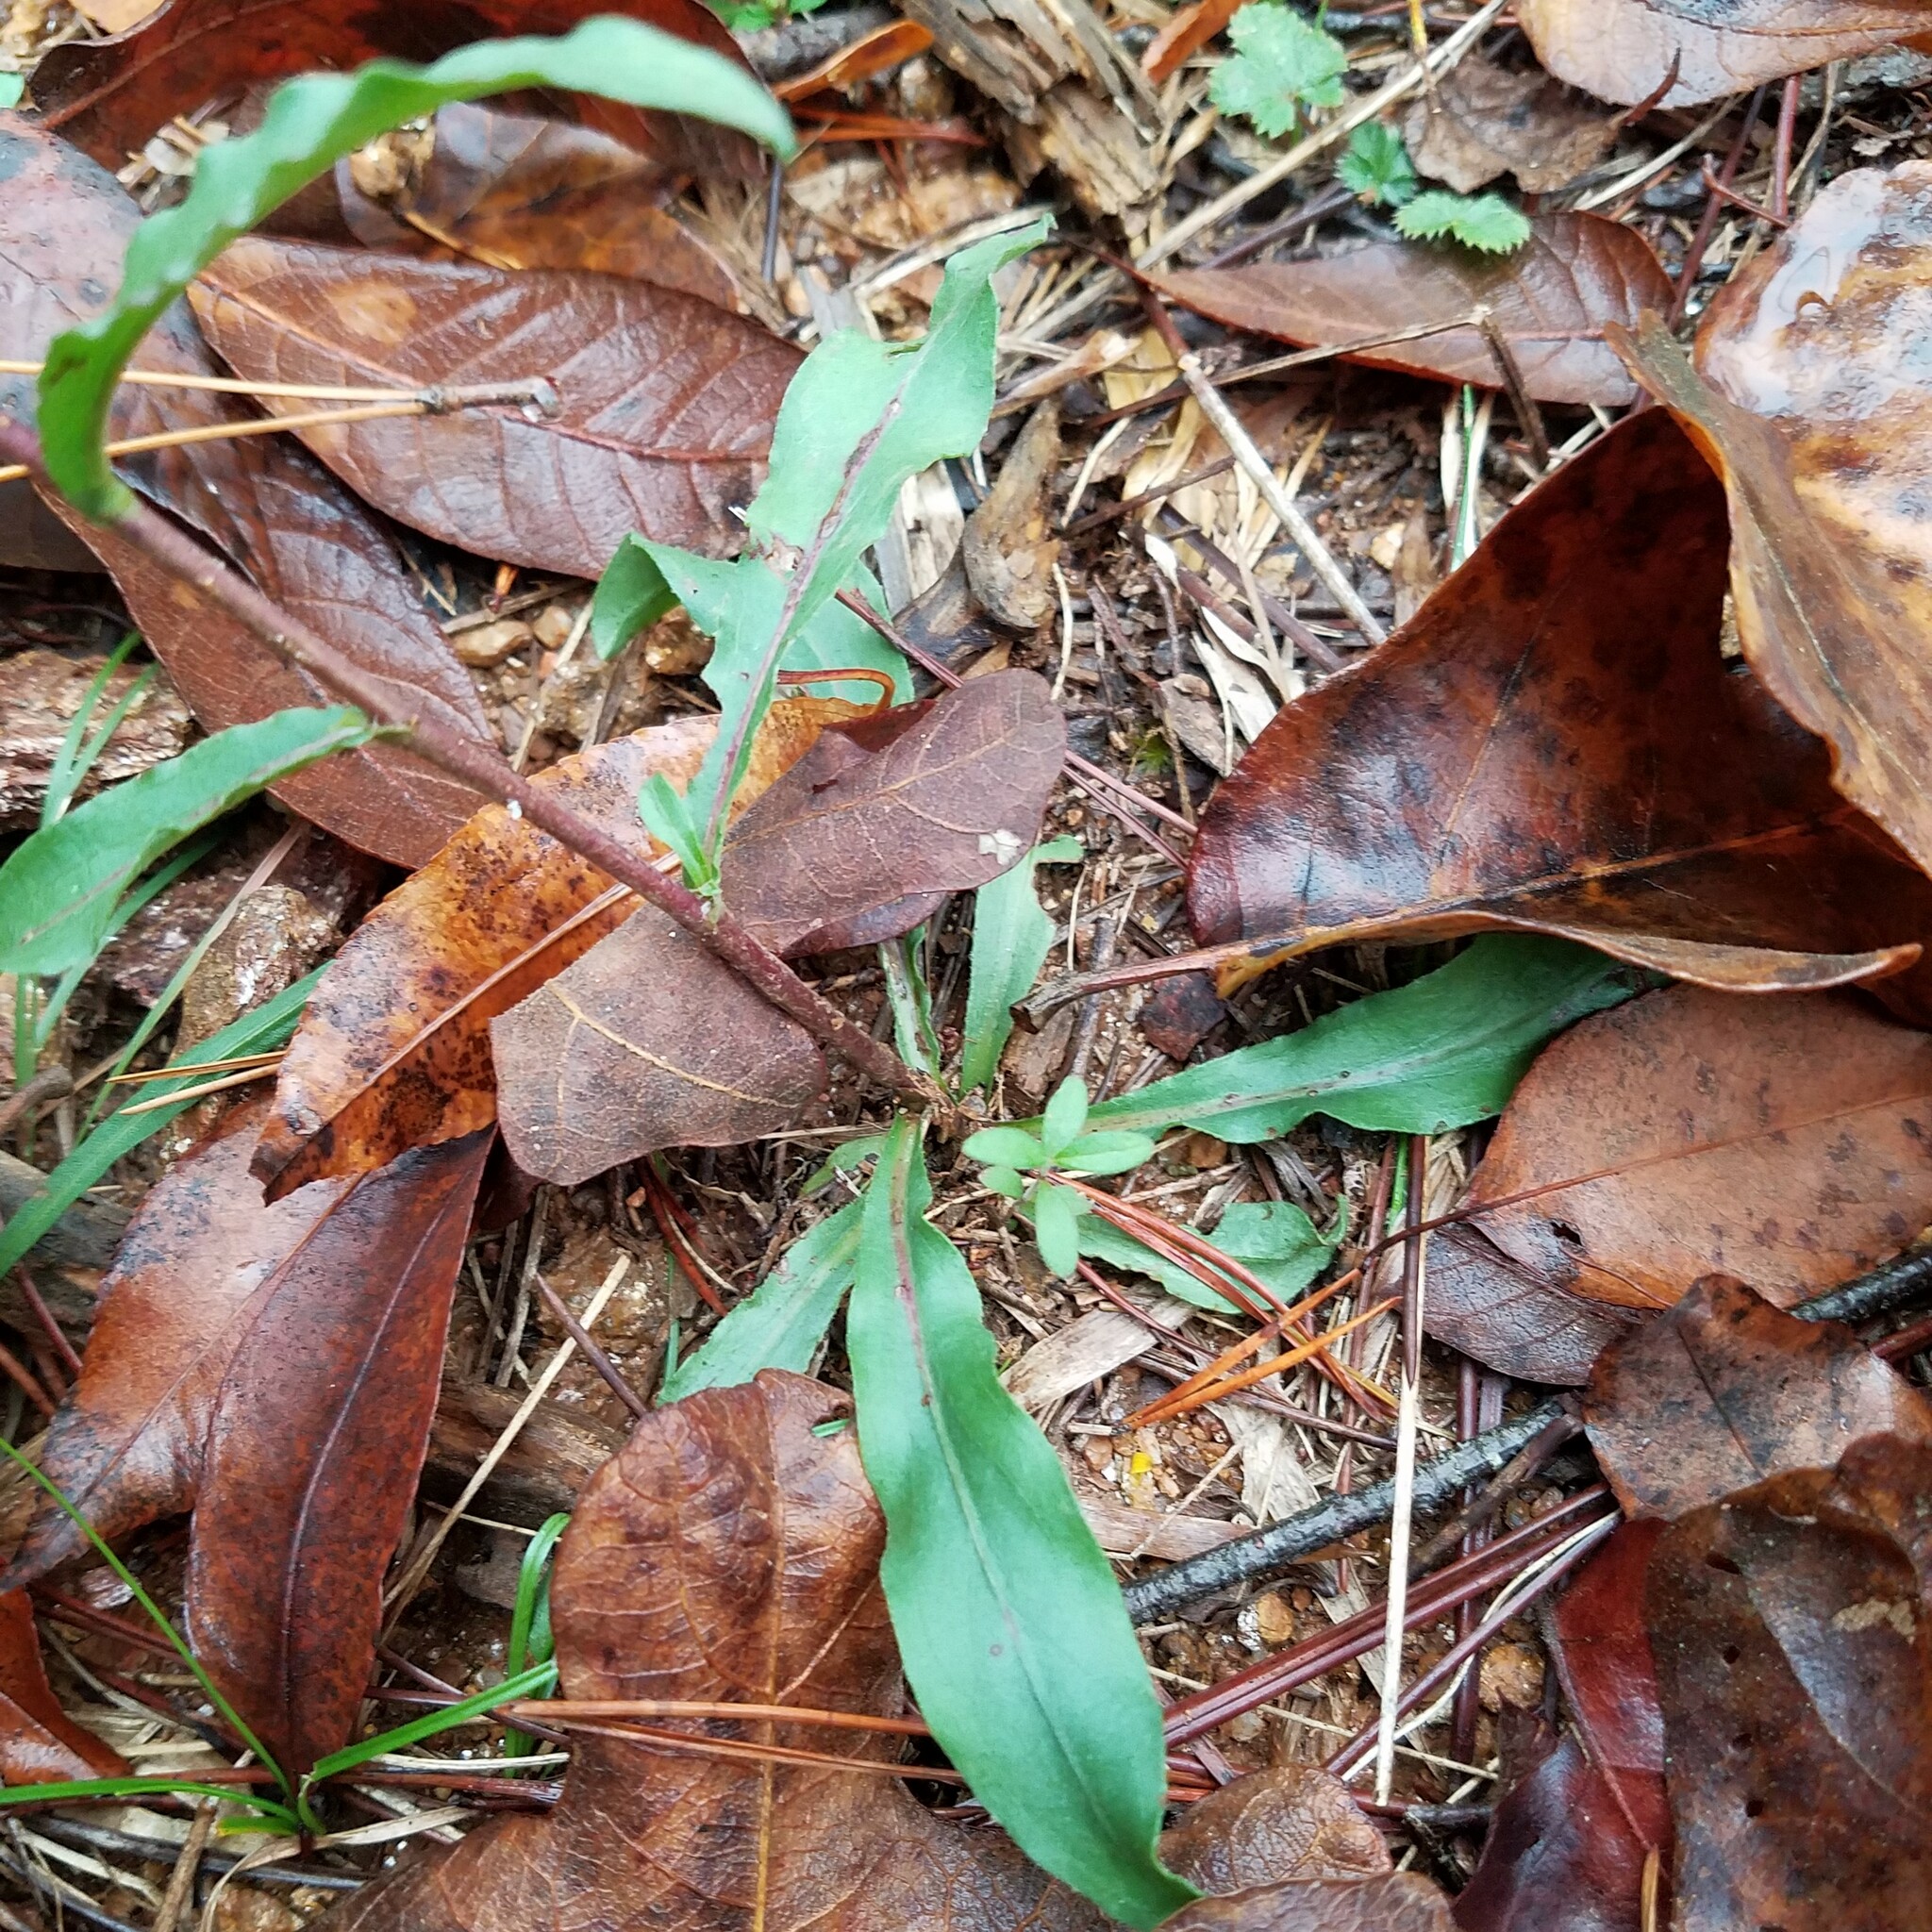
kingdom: Plantae
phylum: Tracheophyta
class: Magnoliopsida
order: Asterales
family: Asteraceae
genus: Chrysopsis
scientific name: Chrysopsis mariana
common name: Maryland golden-aster
